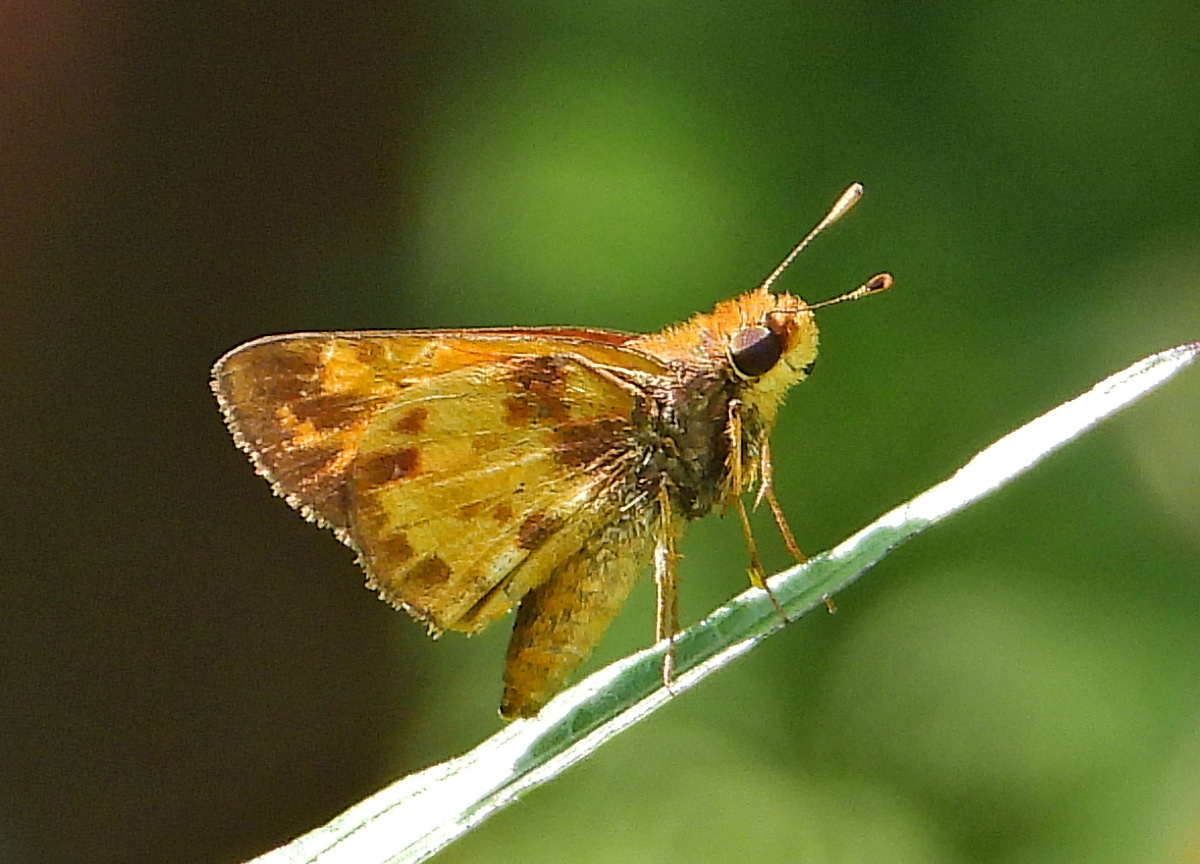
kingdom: Animalia
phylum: Arthropoda
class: Insecta
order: Lepidoptera
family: Hesperiidae
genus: Lon
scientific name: Lon zabulon
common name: Zabulon skipper
